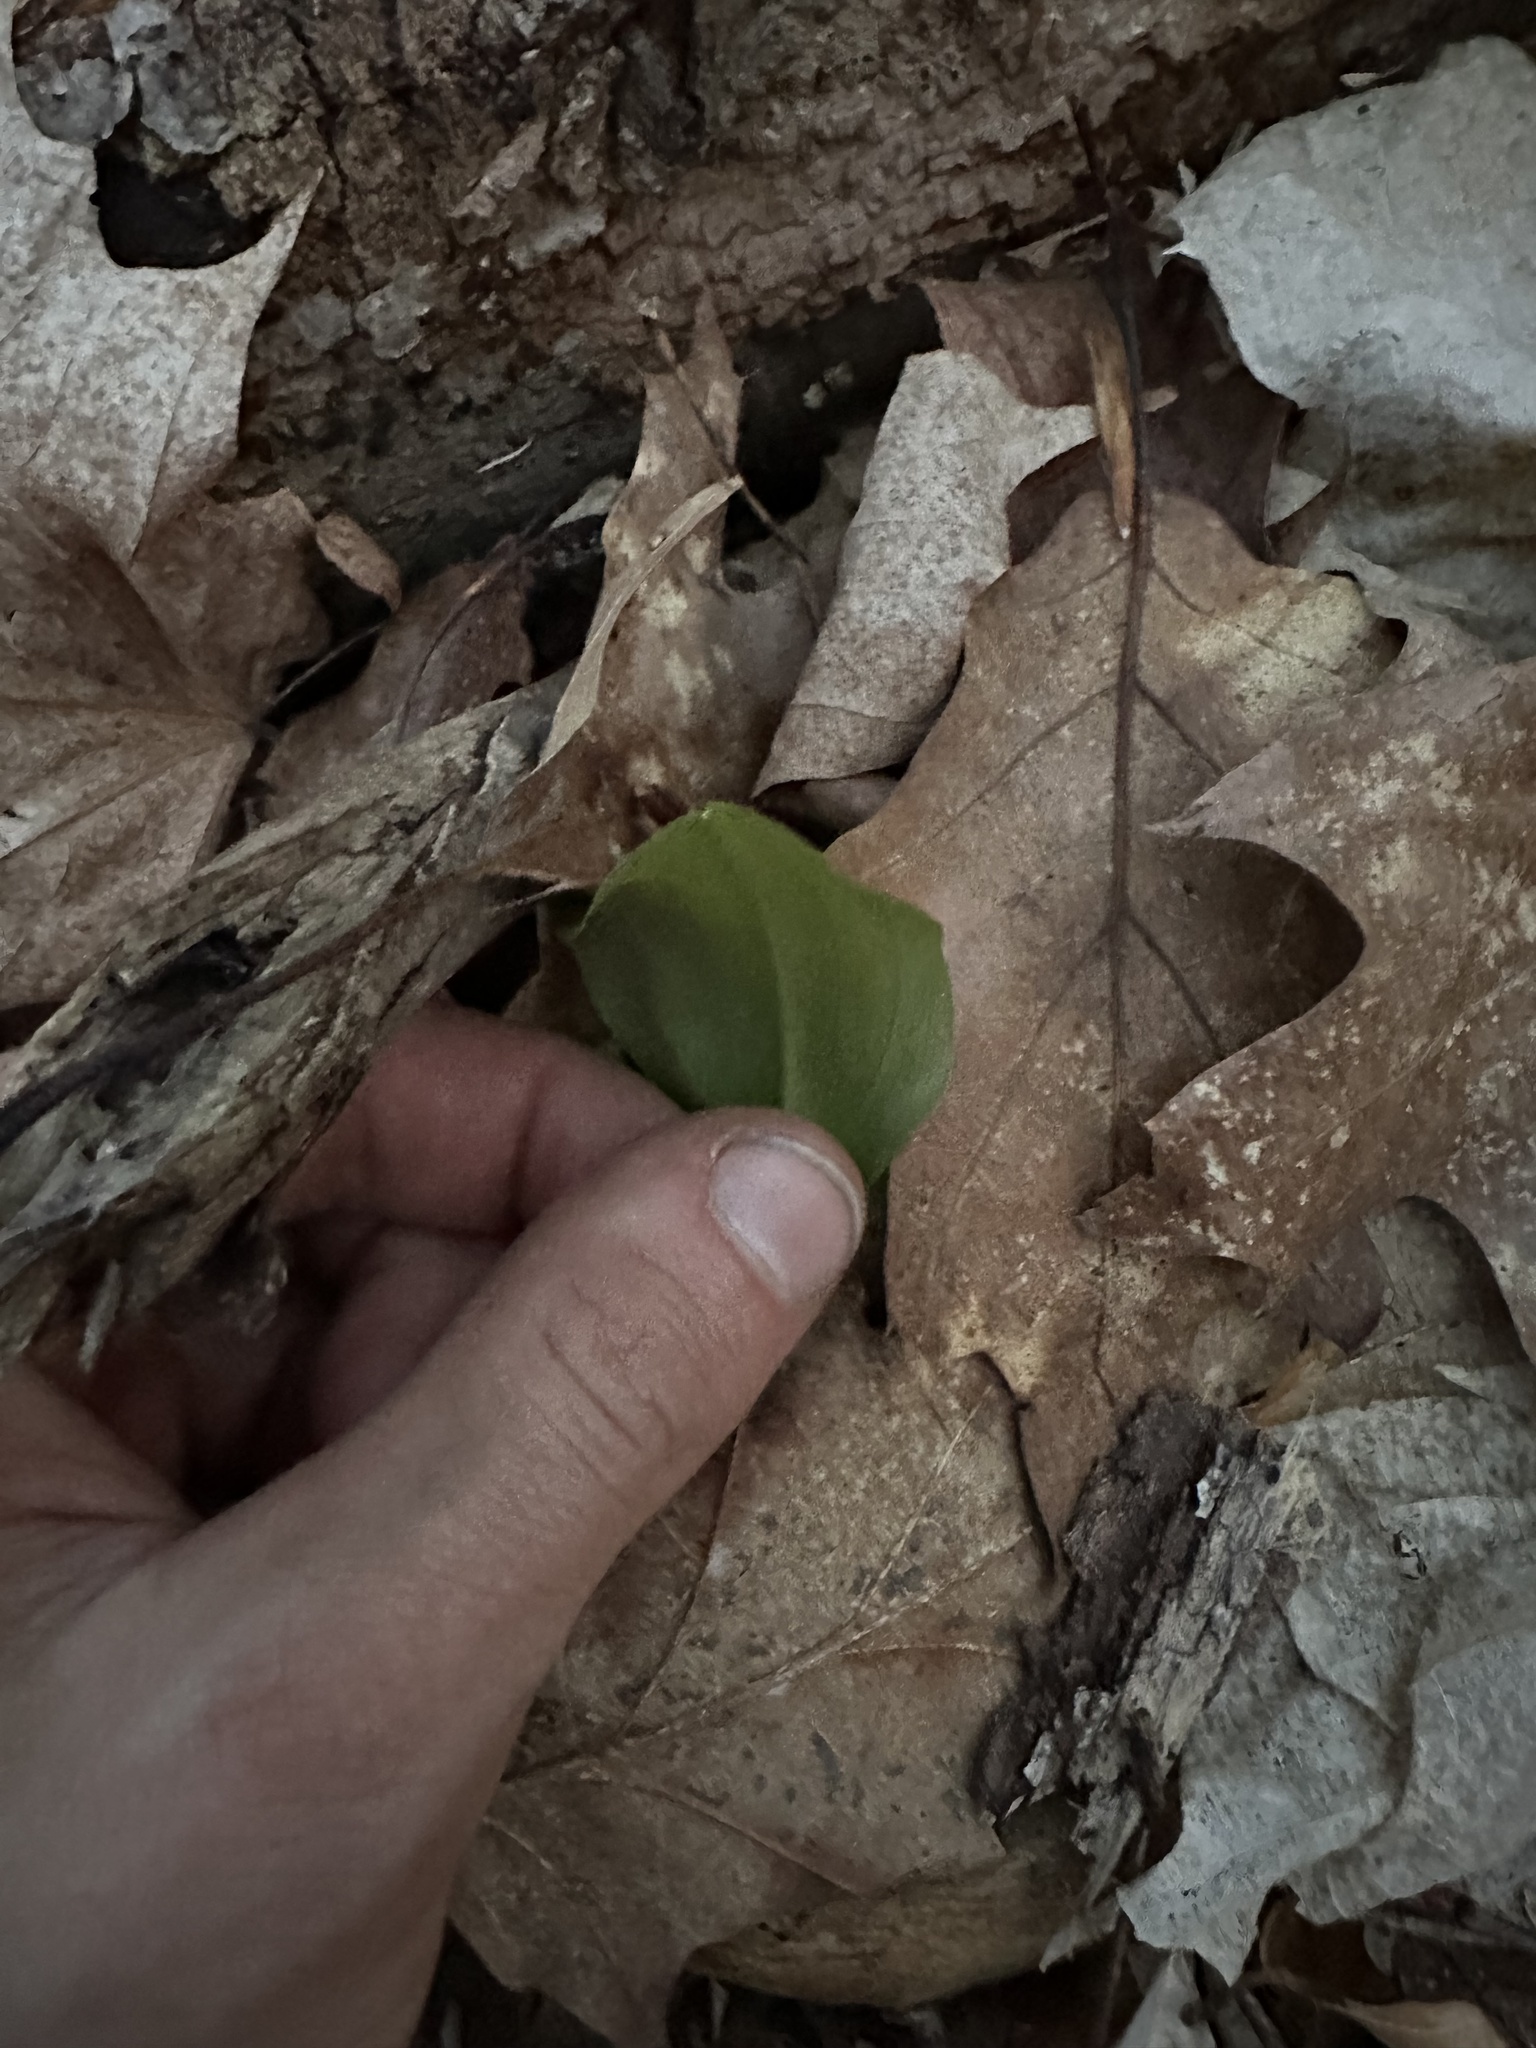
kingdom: Plantae
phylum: Tracheophyta
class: Liliopsida
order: Asparagales
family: Asparagaceae
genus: Maianthemum
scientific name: Maianthemum canadense
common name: False lily-of-the-valley
